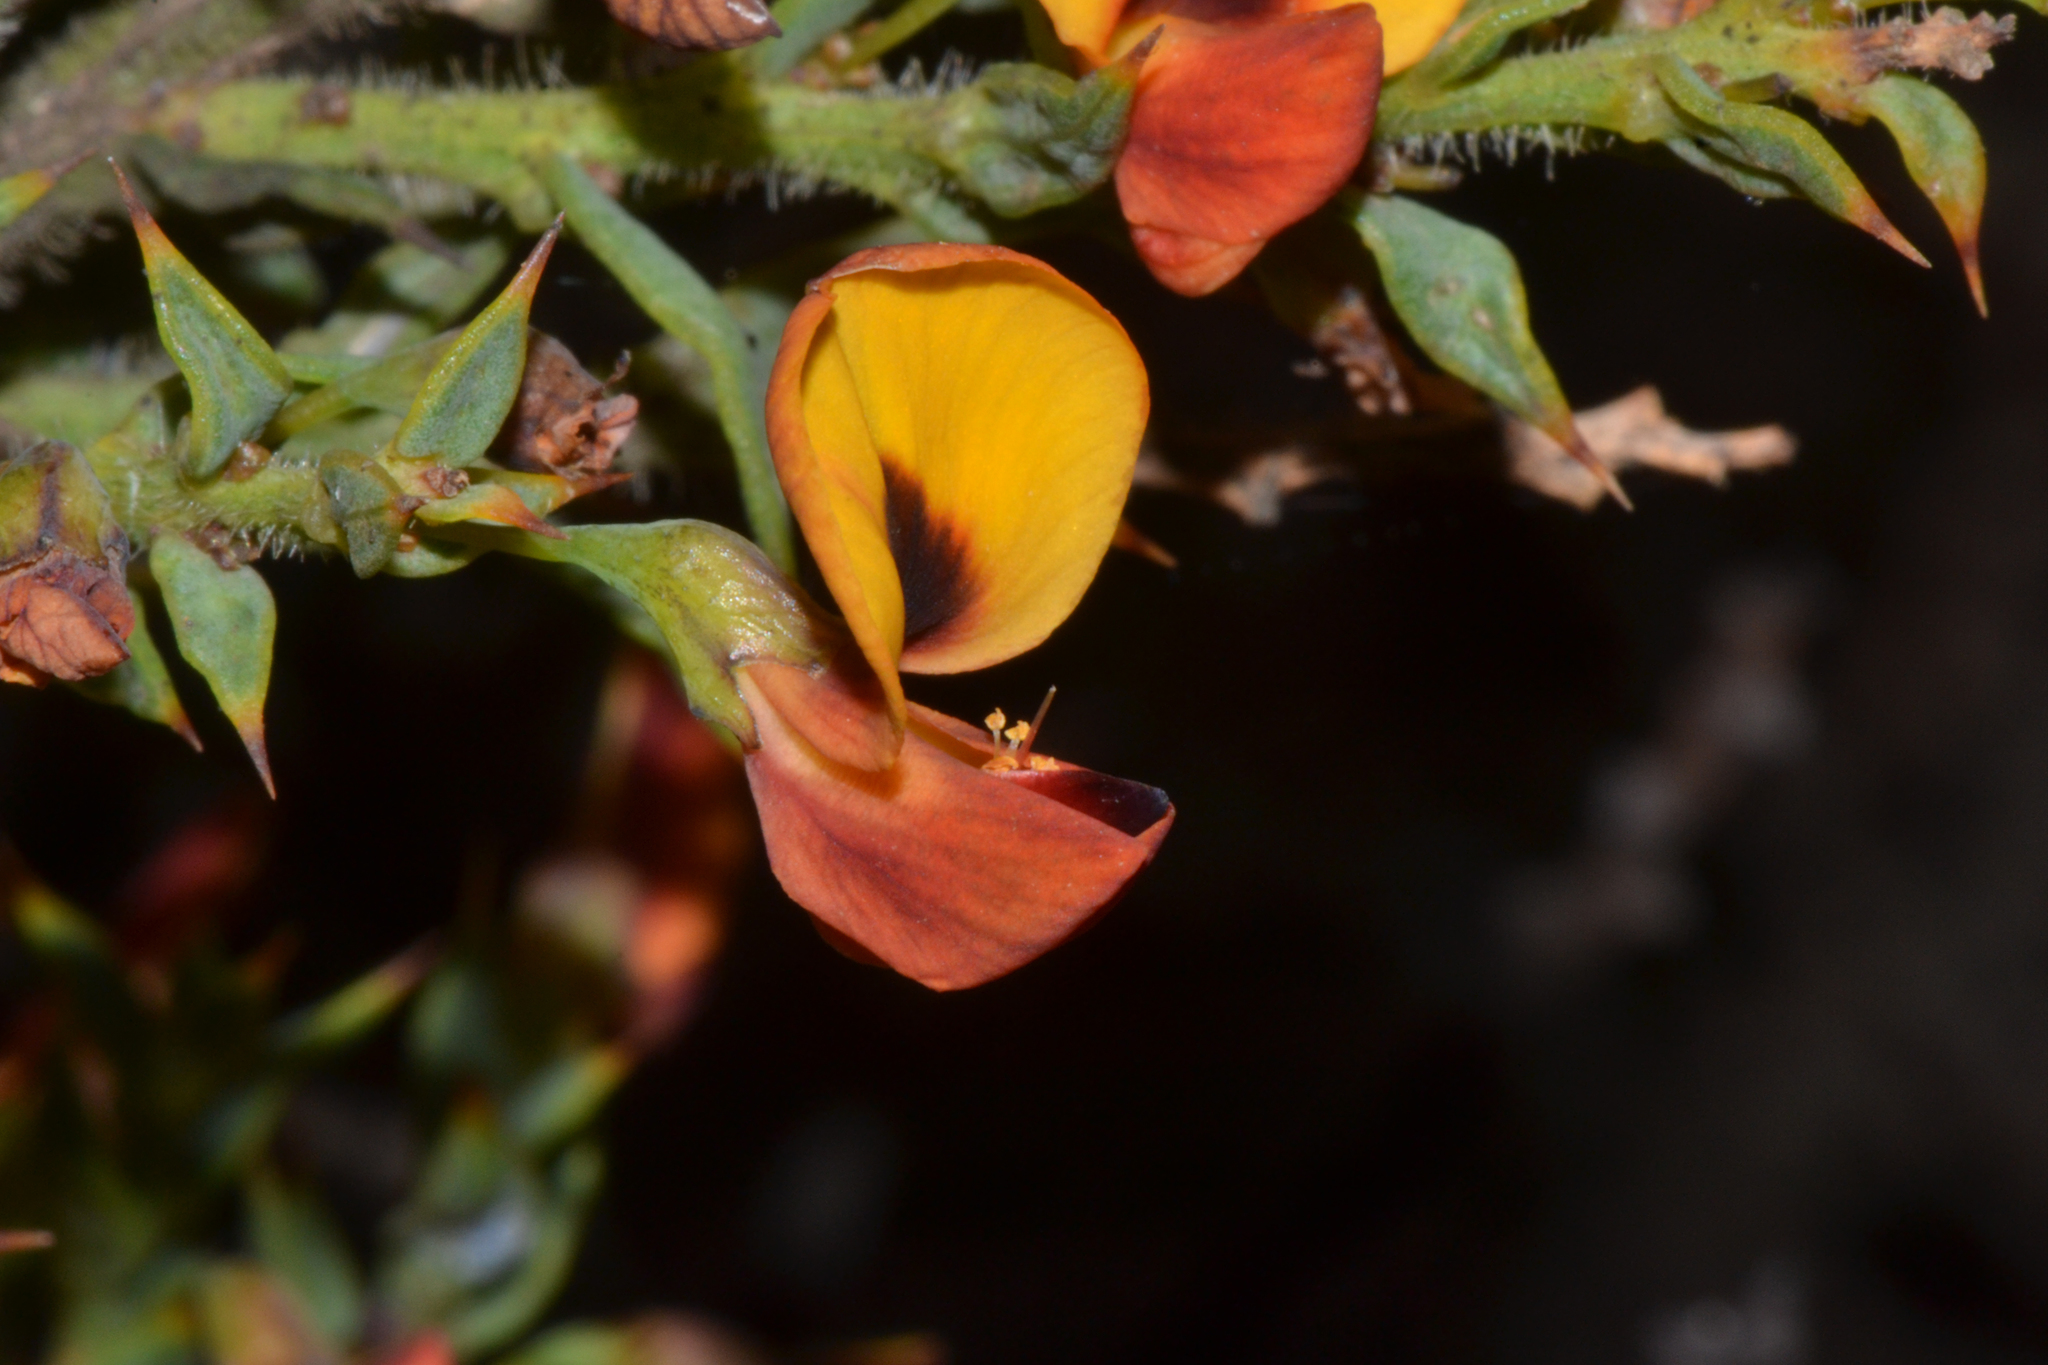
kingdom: Plantae
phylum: Tracheophyta
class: Magnoliopsida
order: Fabales
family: Fabaceae
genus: Daviesia
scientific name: Daviesia umbonata
